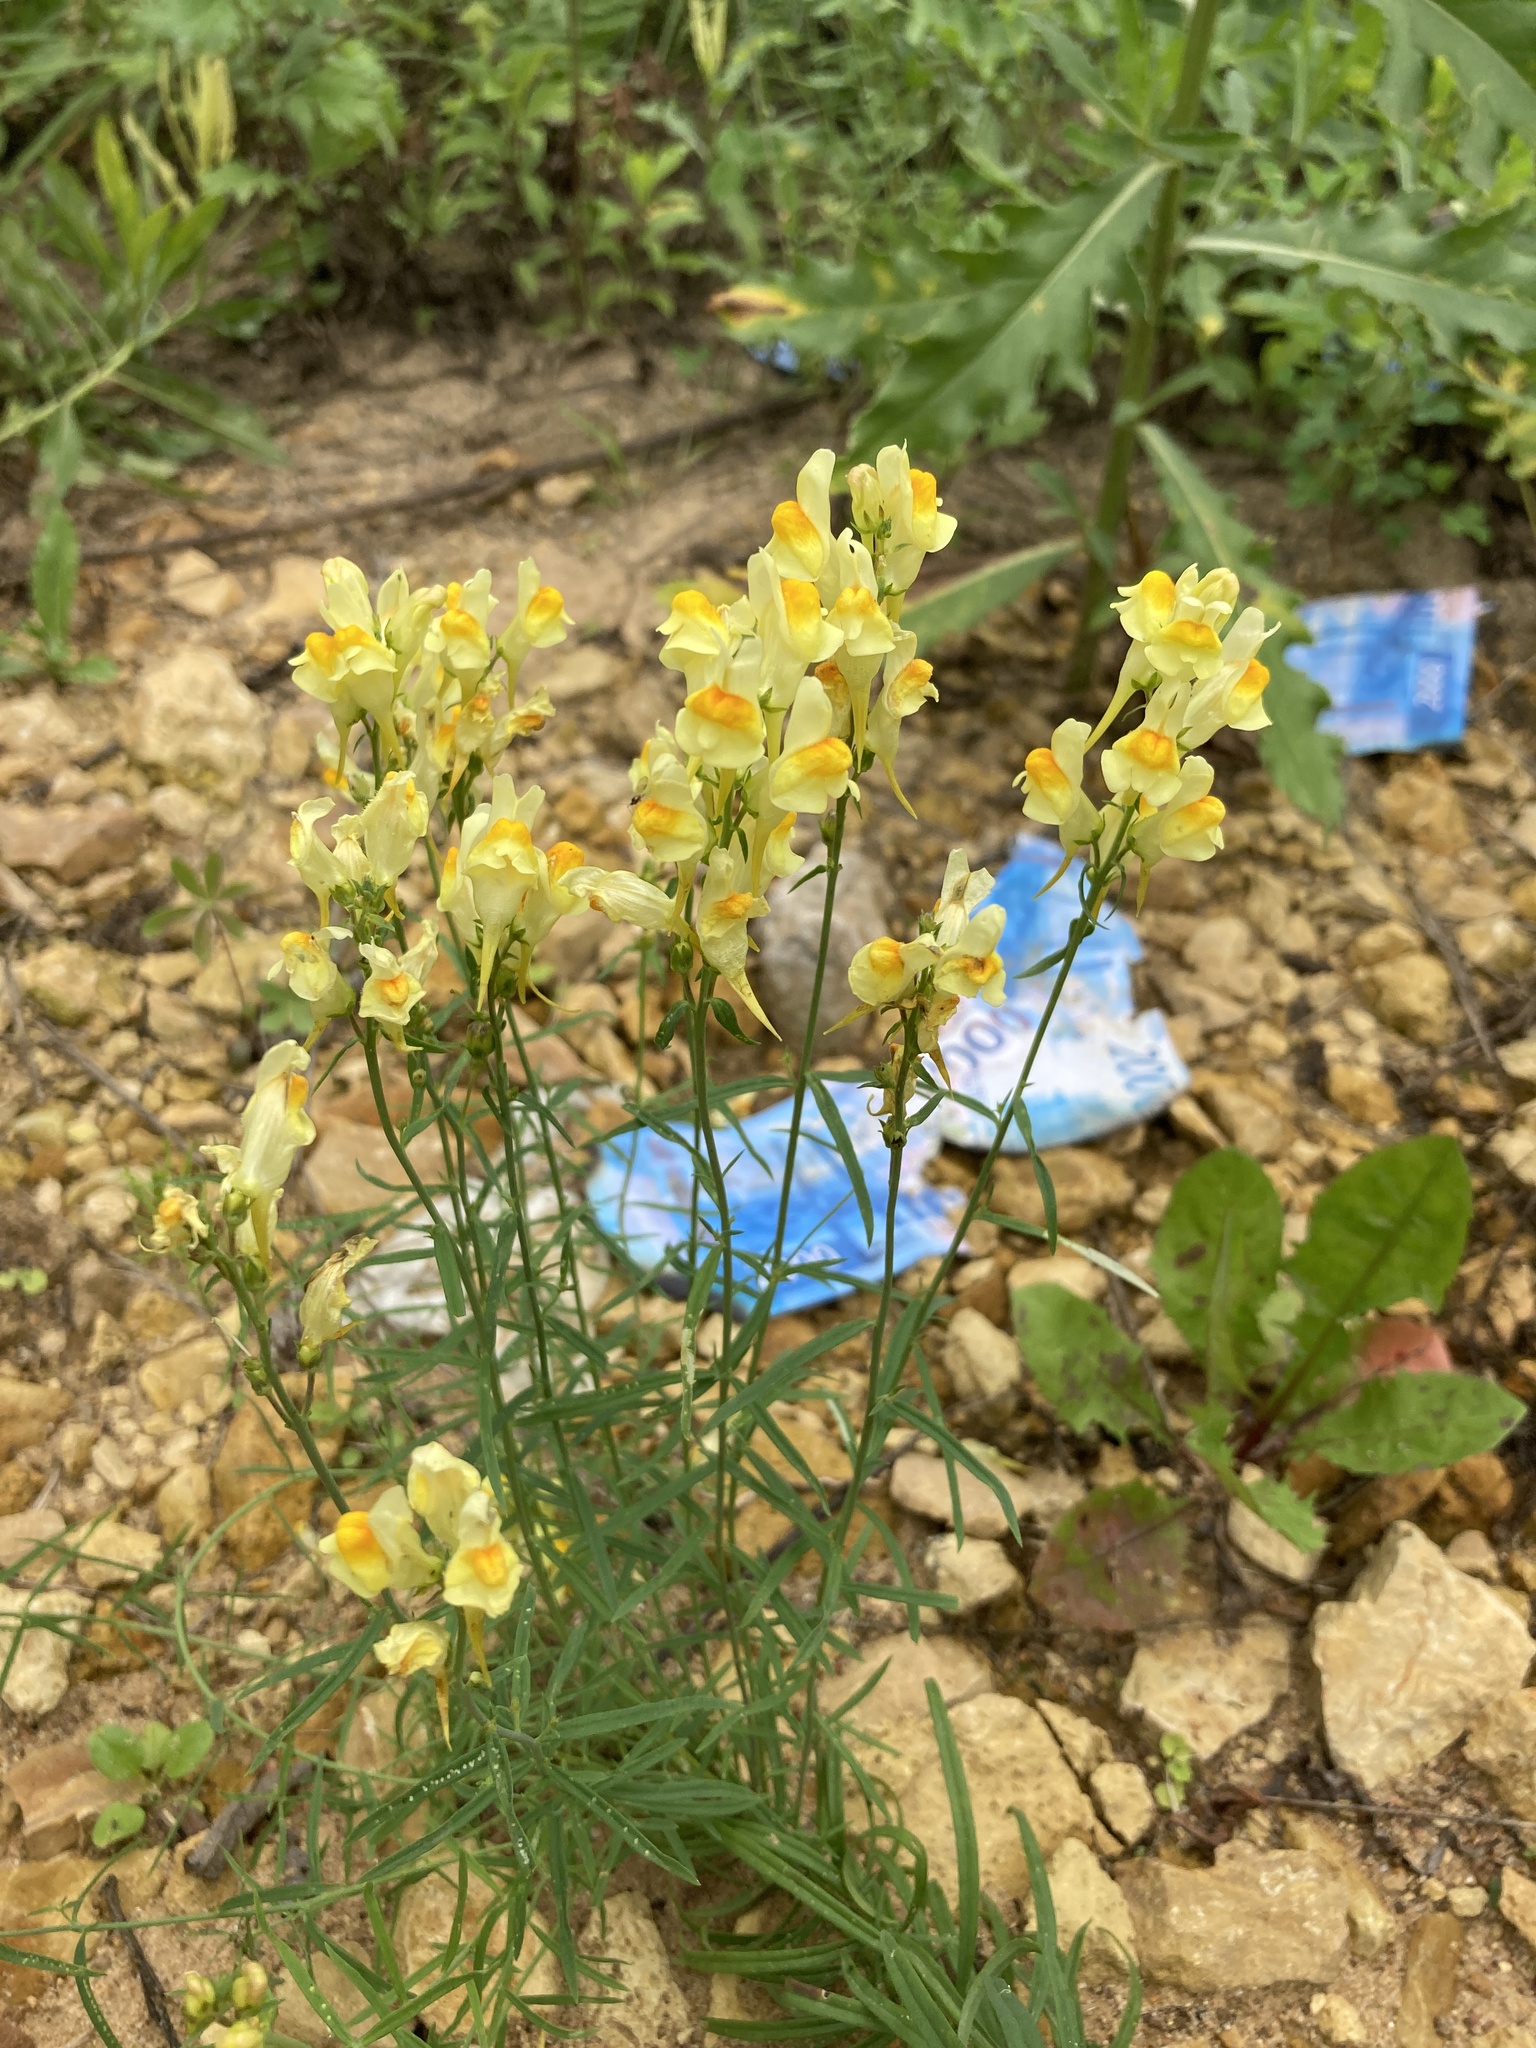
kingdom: Plantae
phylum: Tracheophyta
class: Magnoliopsida
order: Lamiales
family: Plantaginaceae
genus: Linaria
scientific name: Linaria vulgaris
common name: Butter and eggs
